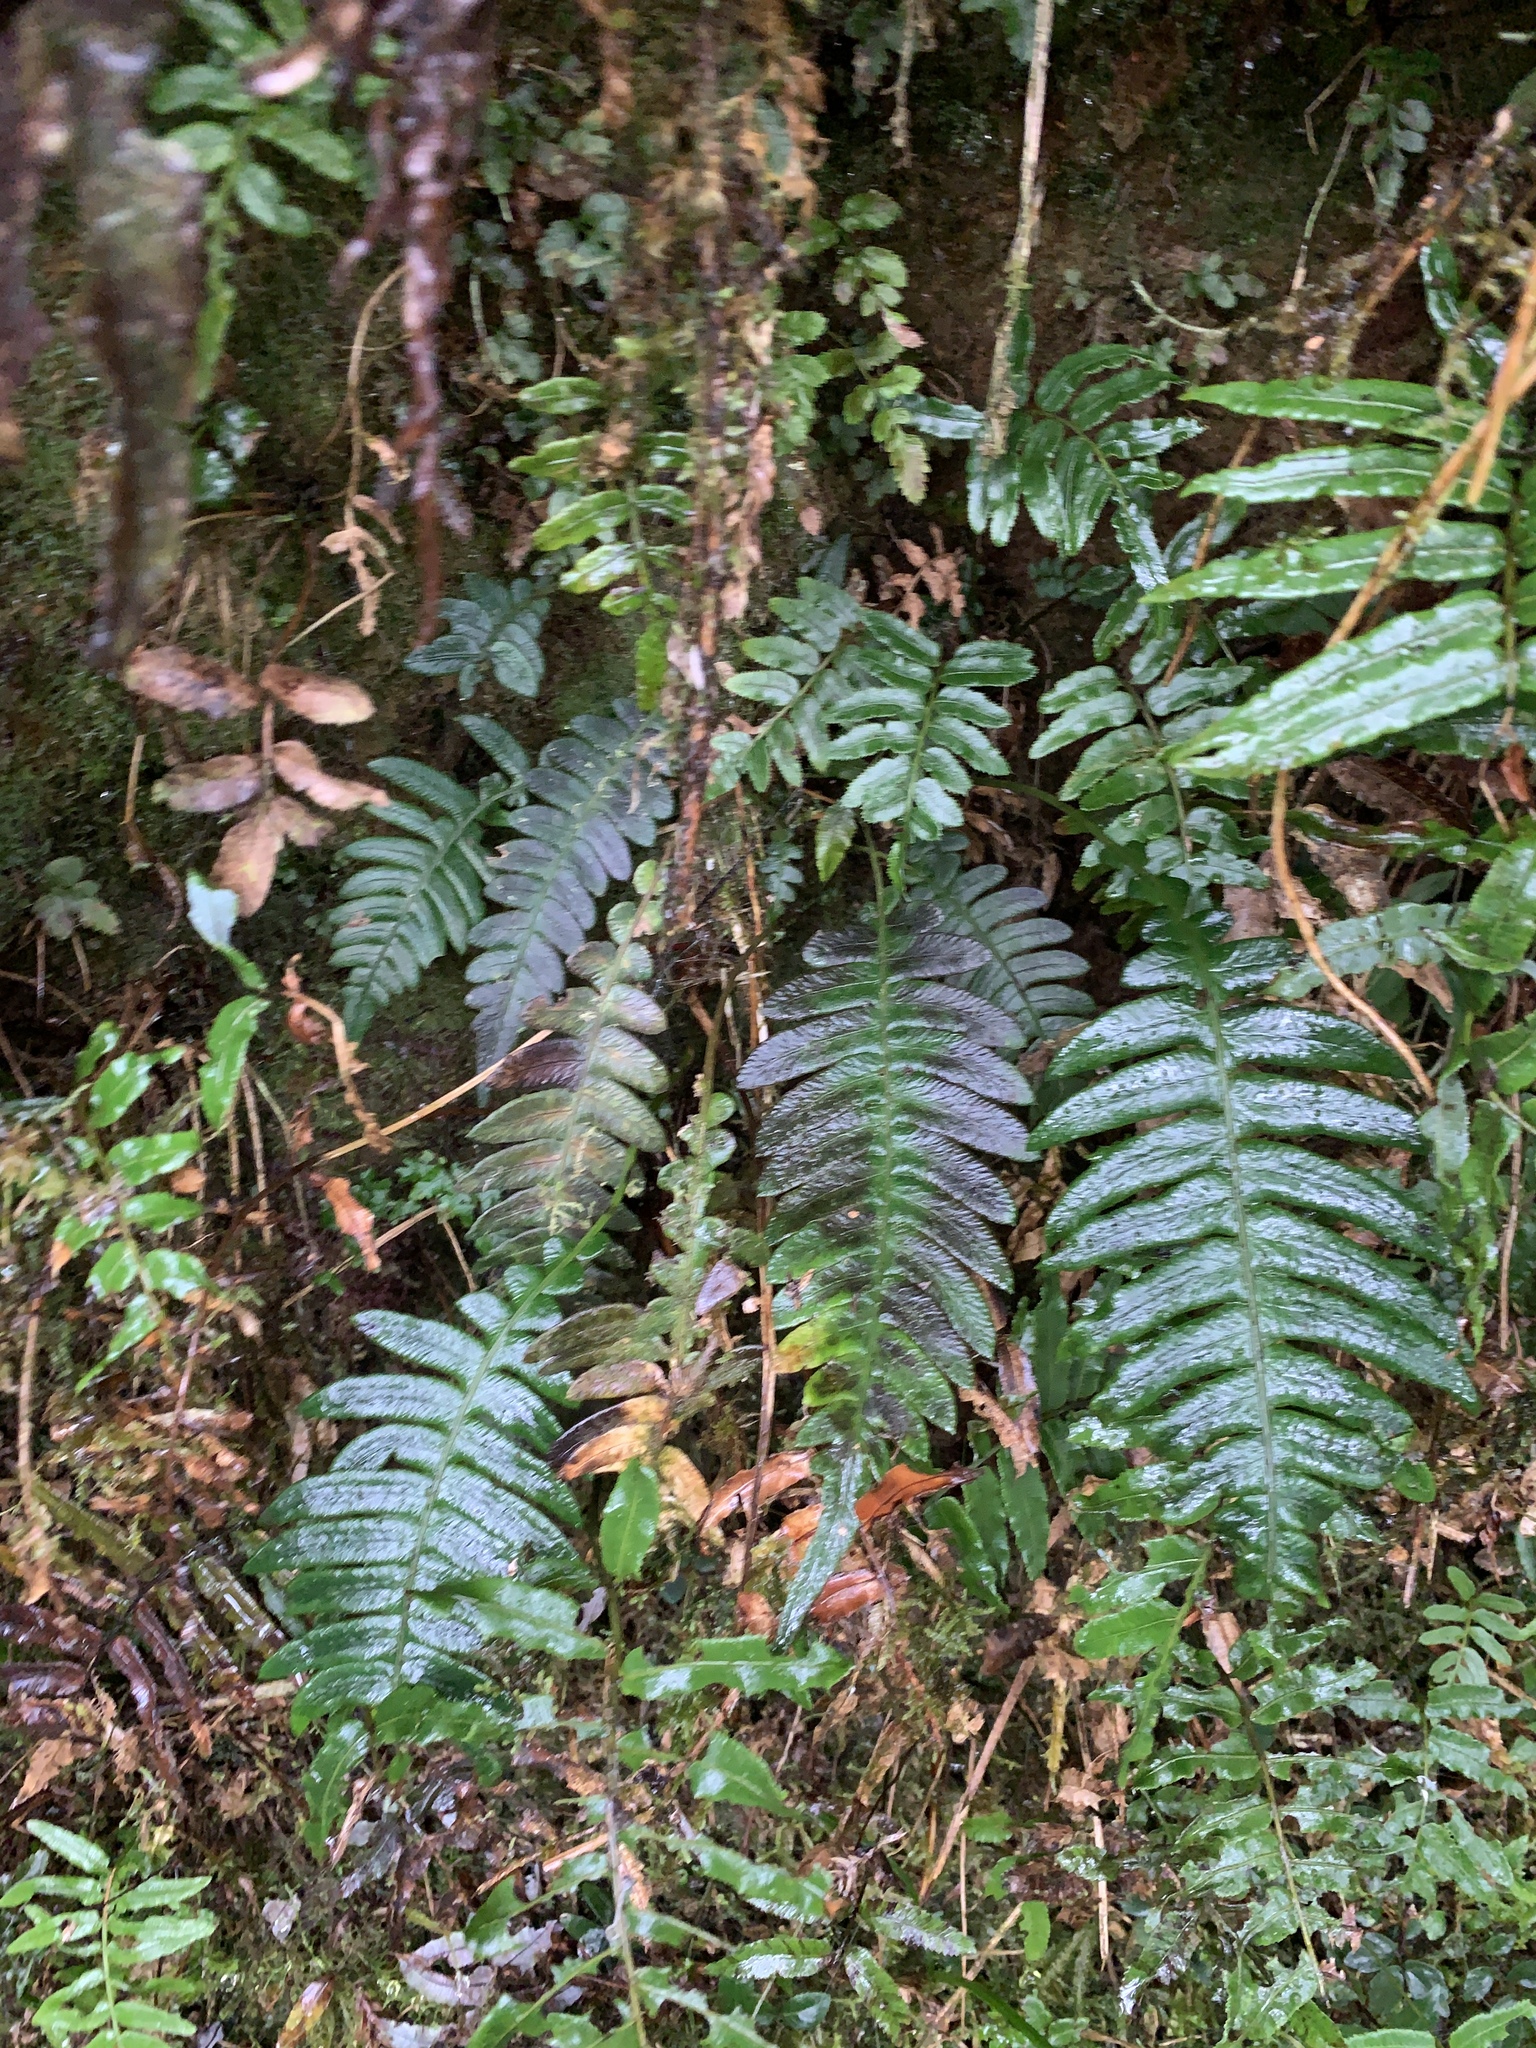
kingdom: Plantae
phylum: Tracheophyta
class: Polypodiopsida
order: Polypodiales
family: Blechnaceae
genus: Blechnidium
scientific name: Blechnidium melanopus
